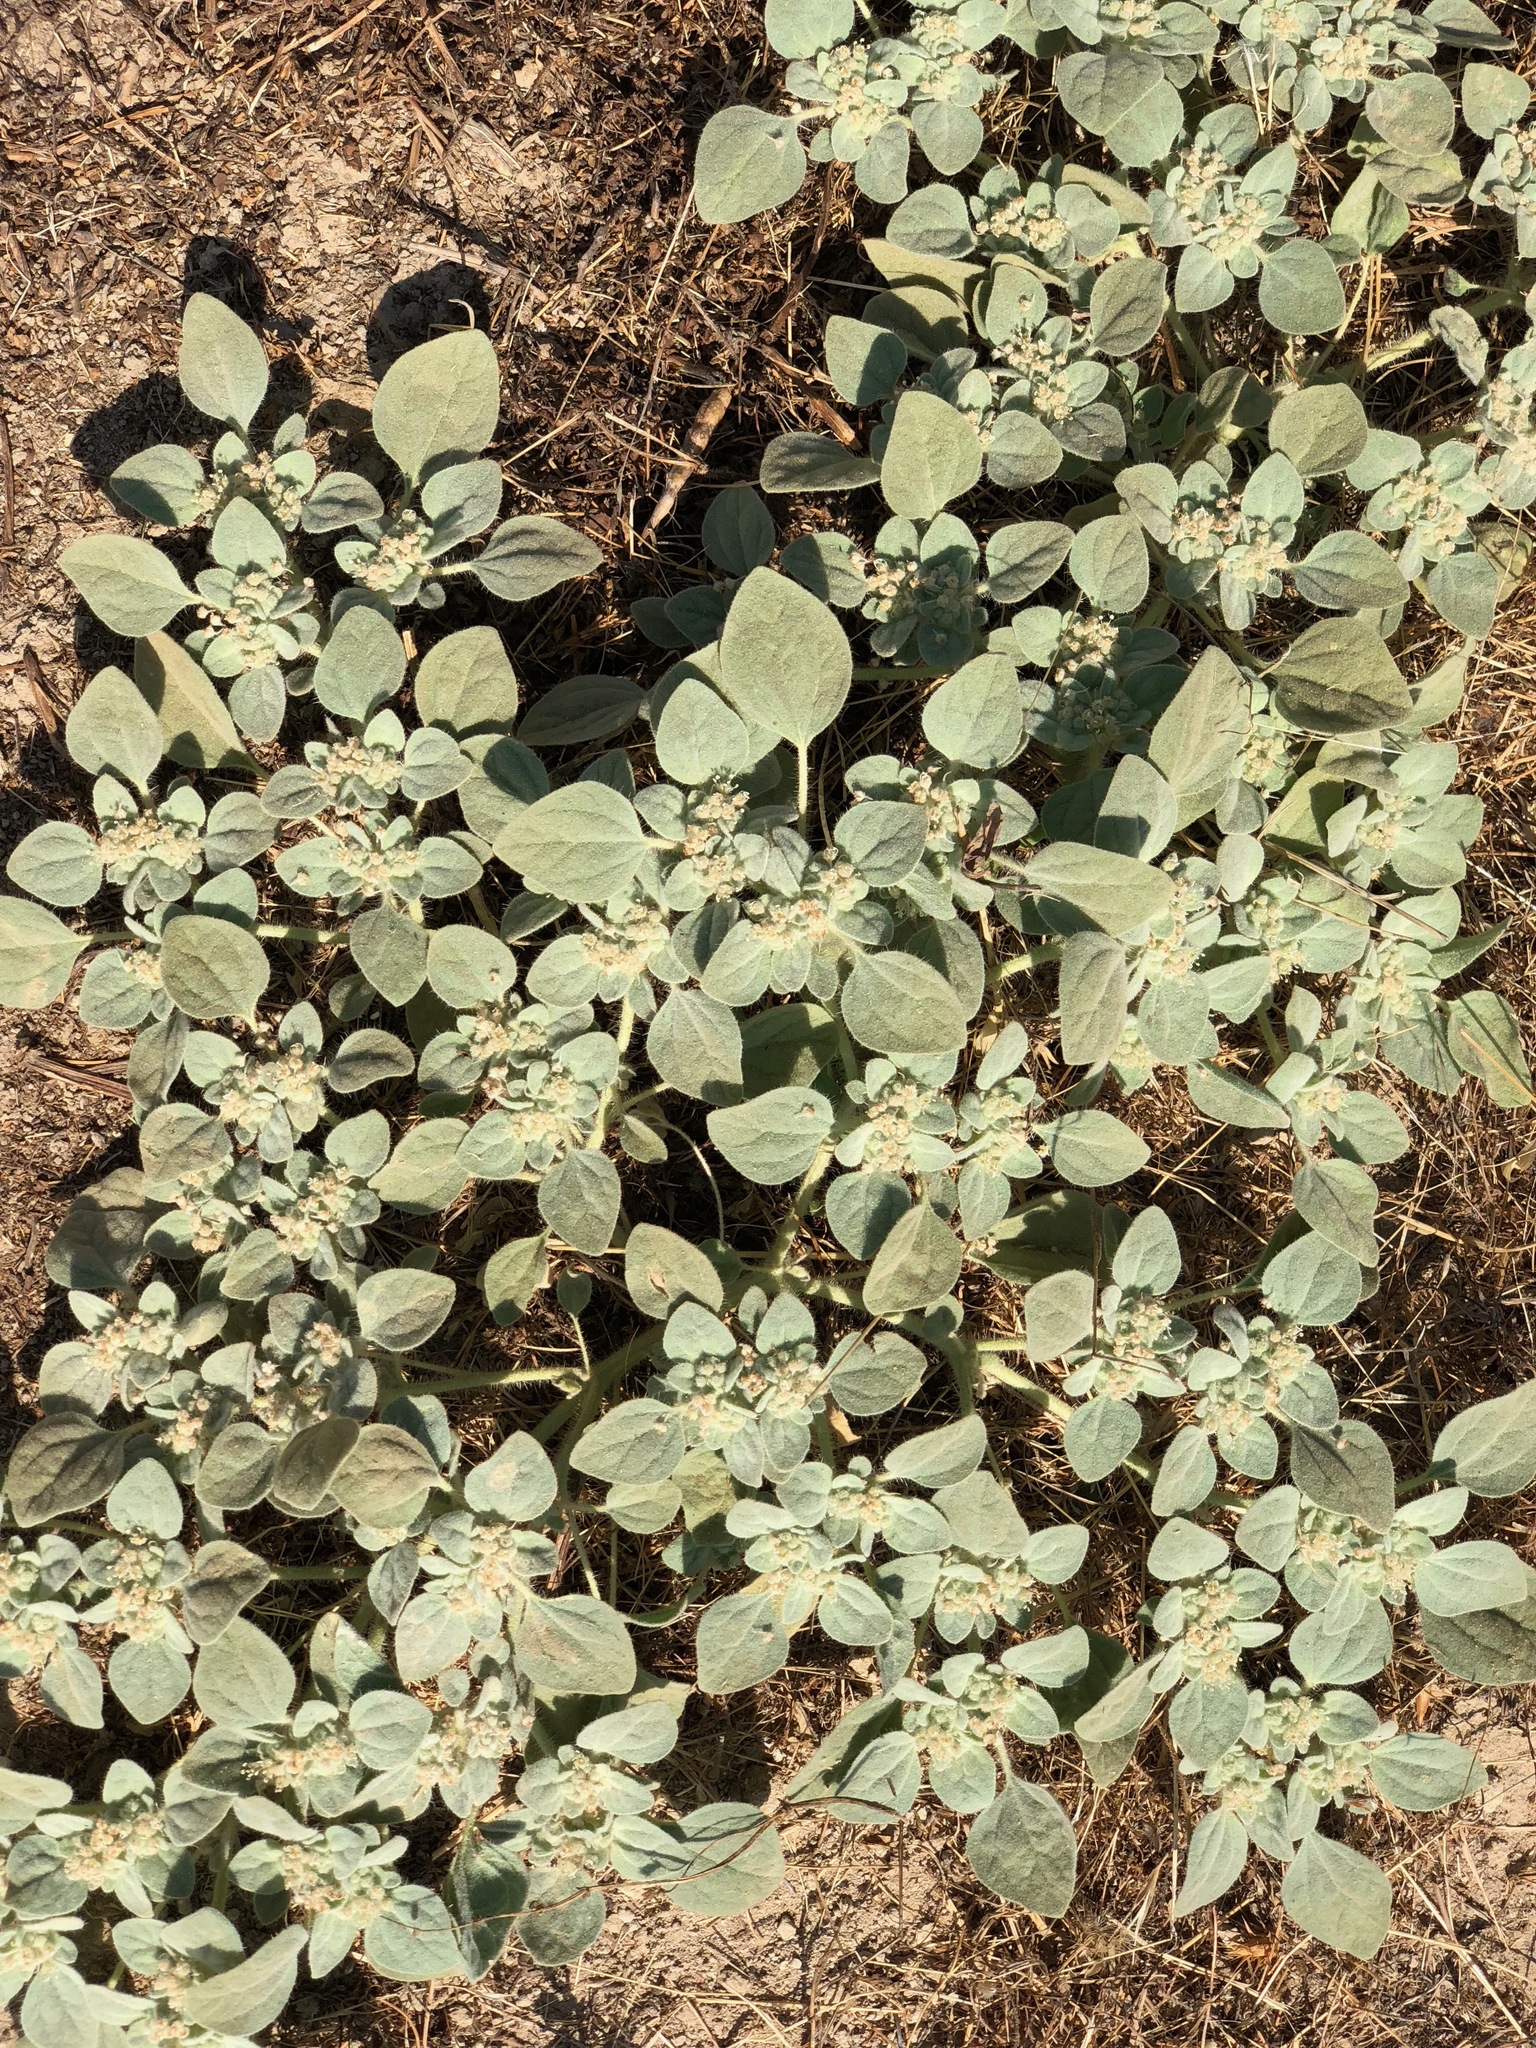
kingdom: Plantae
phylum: Tracheophyta
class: Magnoliopsida
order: Malpighiales
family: Euphorbiaceae
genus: Croton
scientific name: Croton setiger
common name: Dove weed
